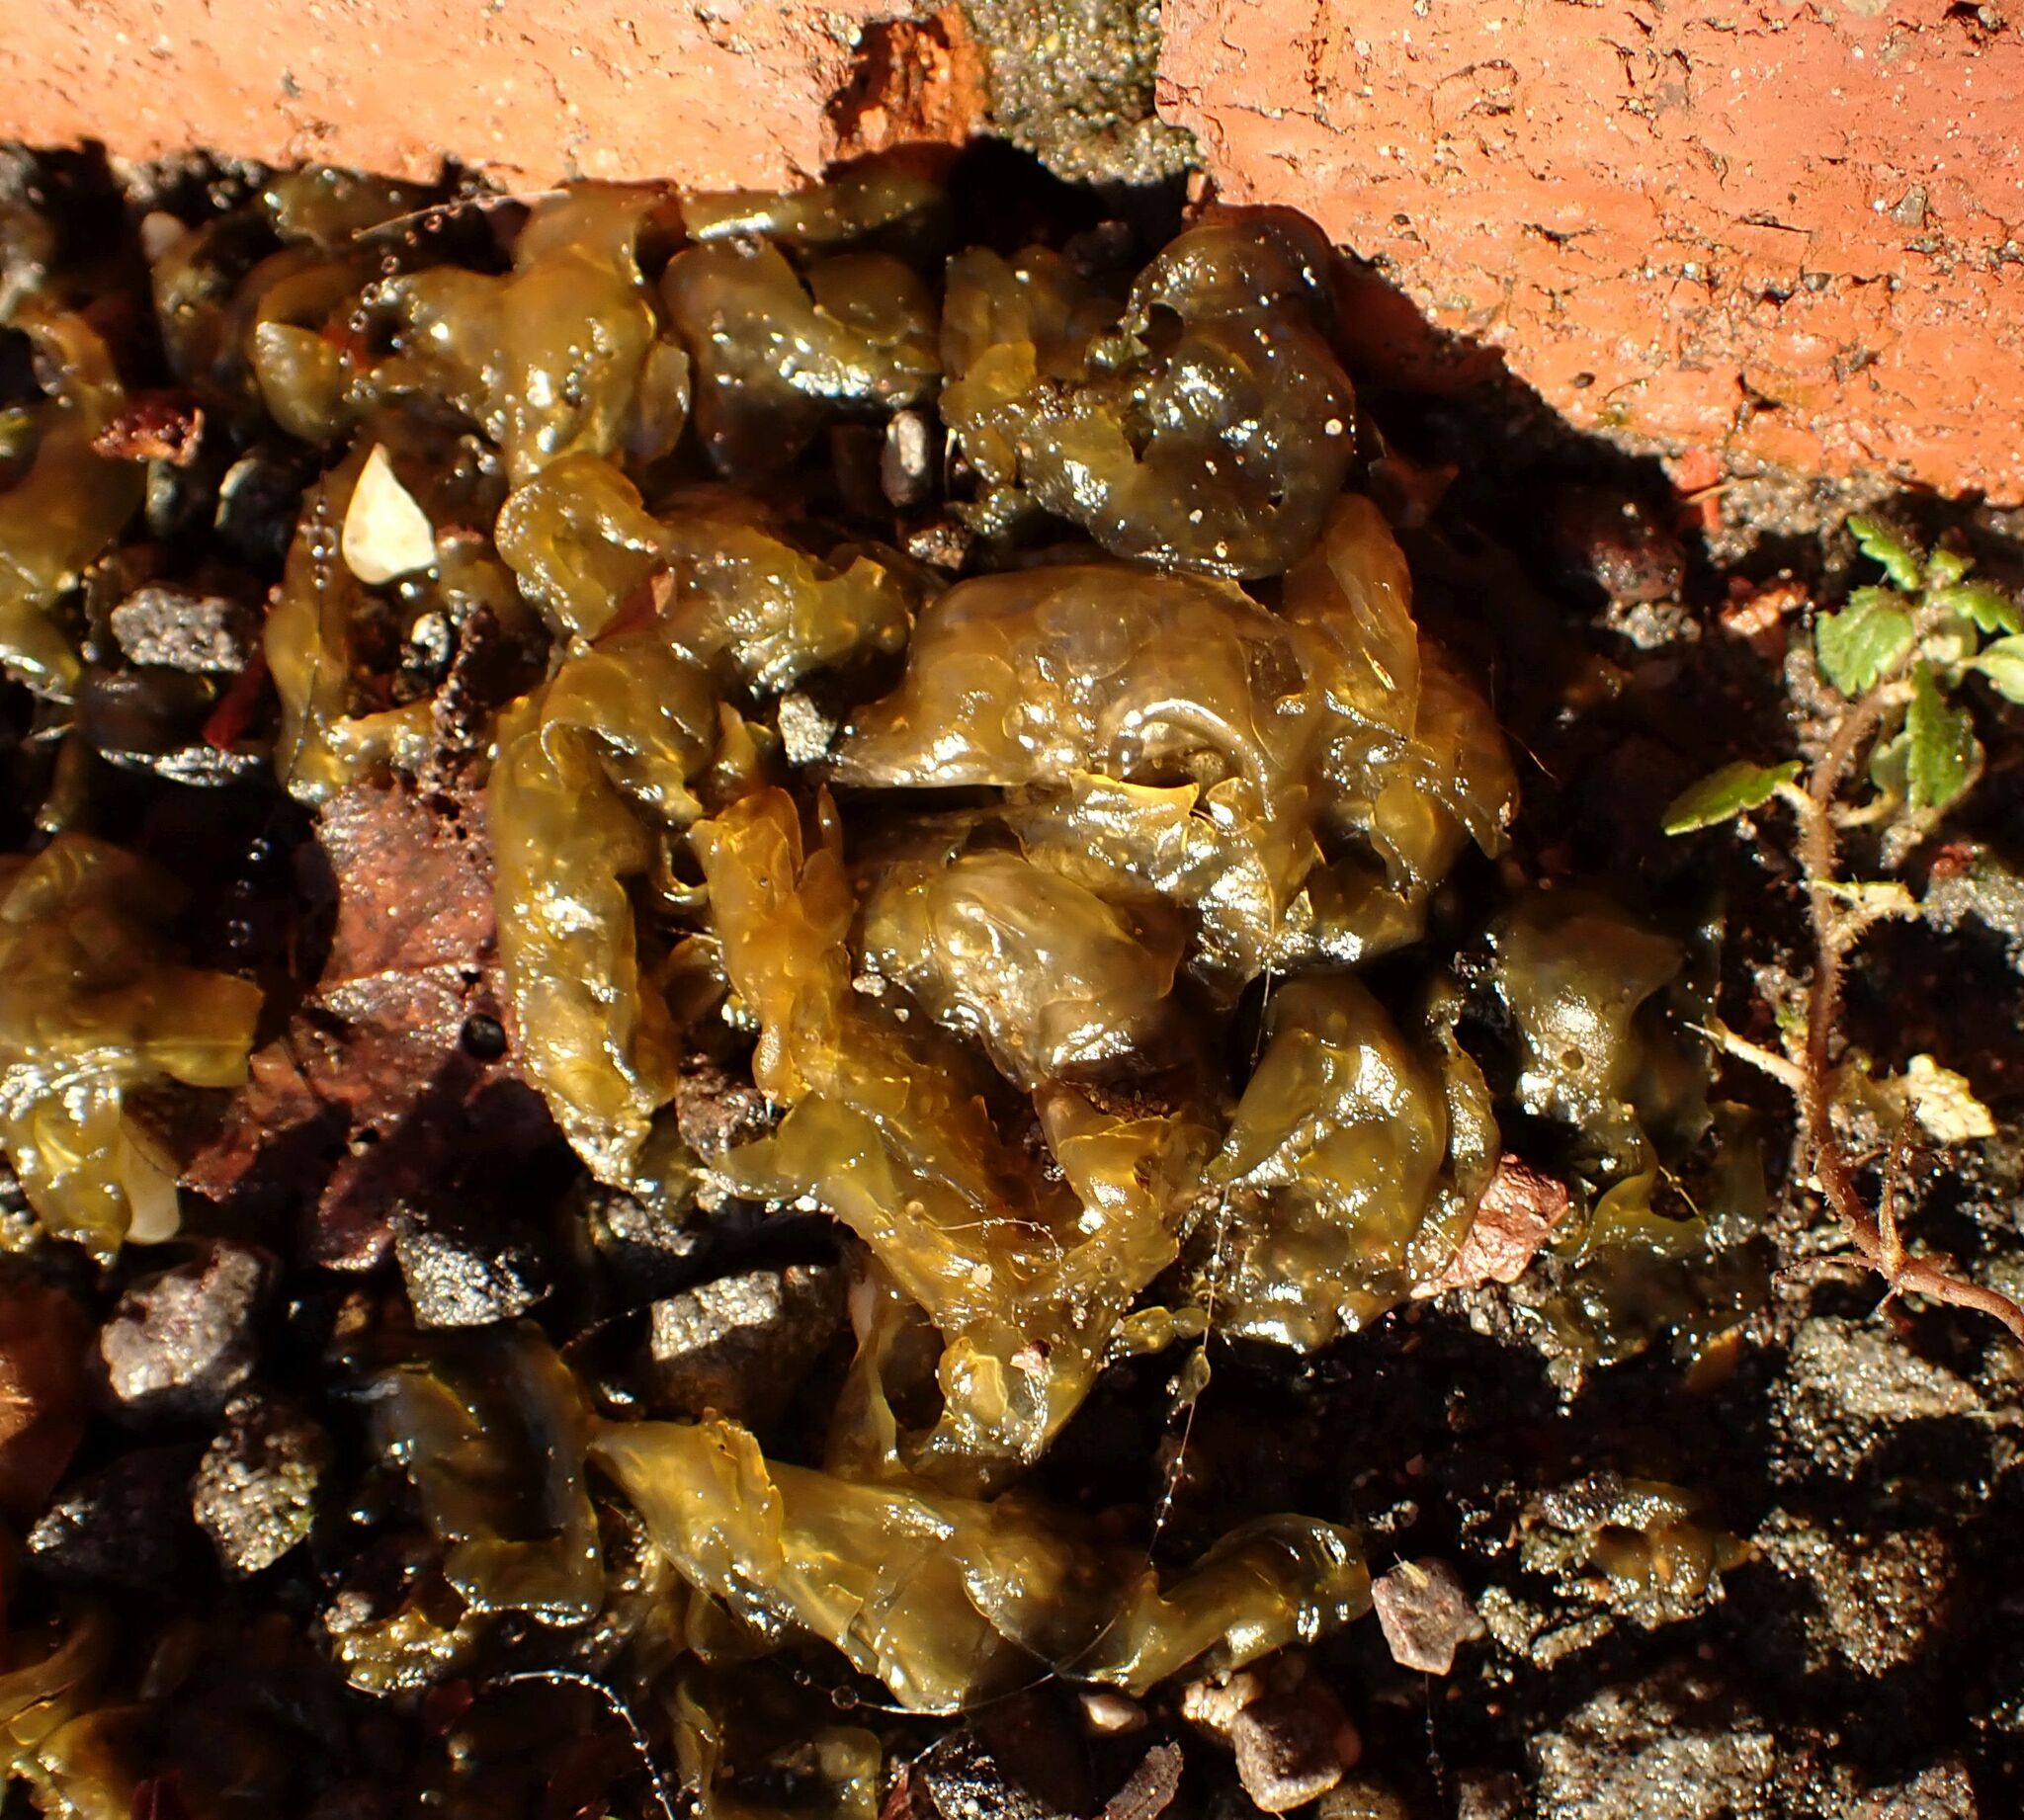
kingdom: Bacteria
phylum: Cyanobacteria
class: Cyanobacteriia
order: Cyanobacteriales
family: Nostocaceae
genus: Nostoc
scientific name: Nostoc commune
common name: Star jelly
